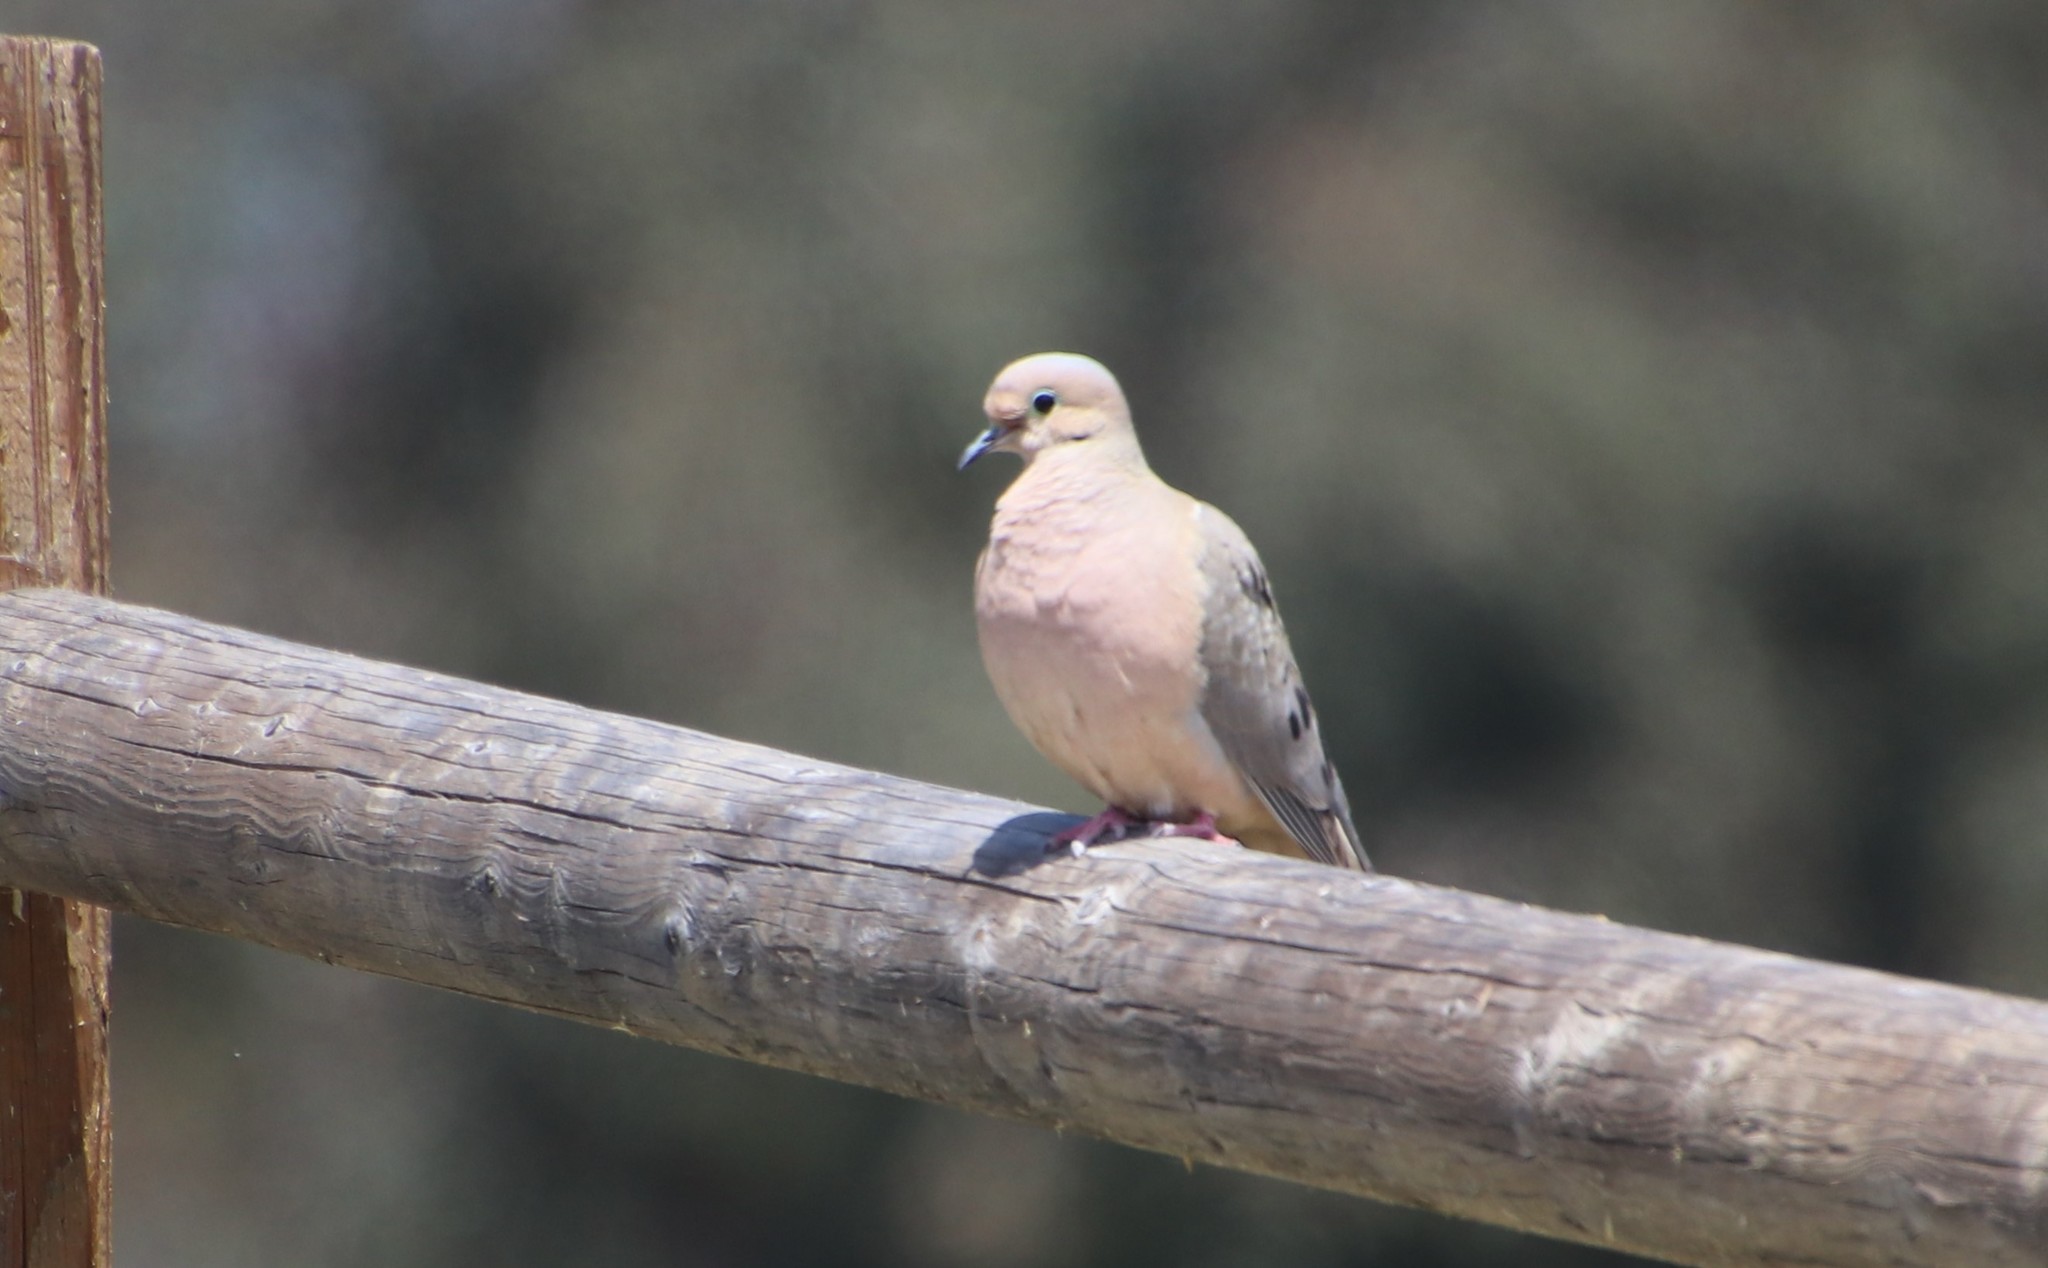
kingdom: Animalia
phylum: Chordata
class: Aves
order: Columbiformes
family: Columbidae
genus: Zenaida
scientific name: Zenaida macroura
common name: Mourning dove
